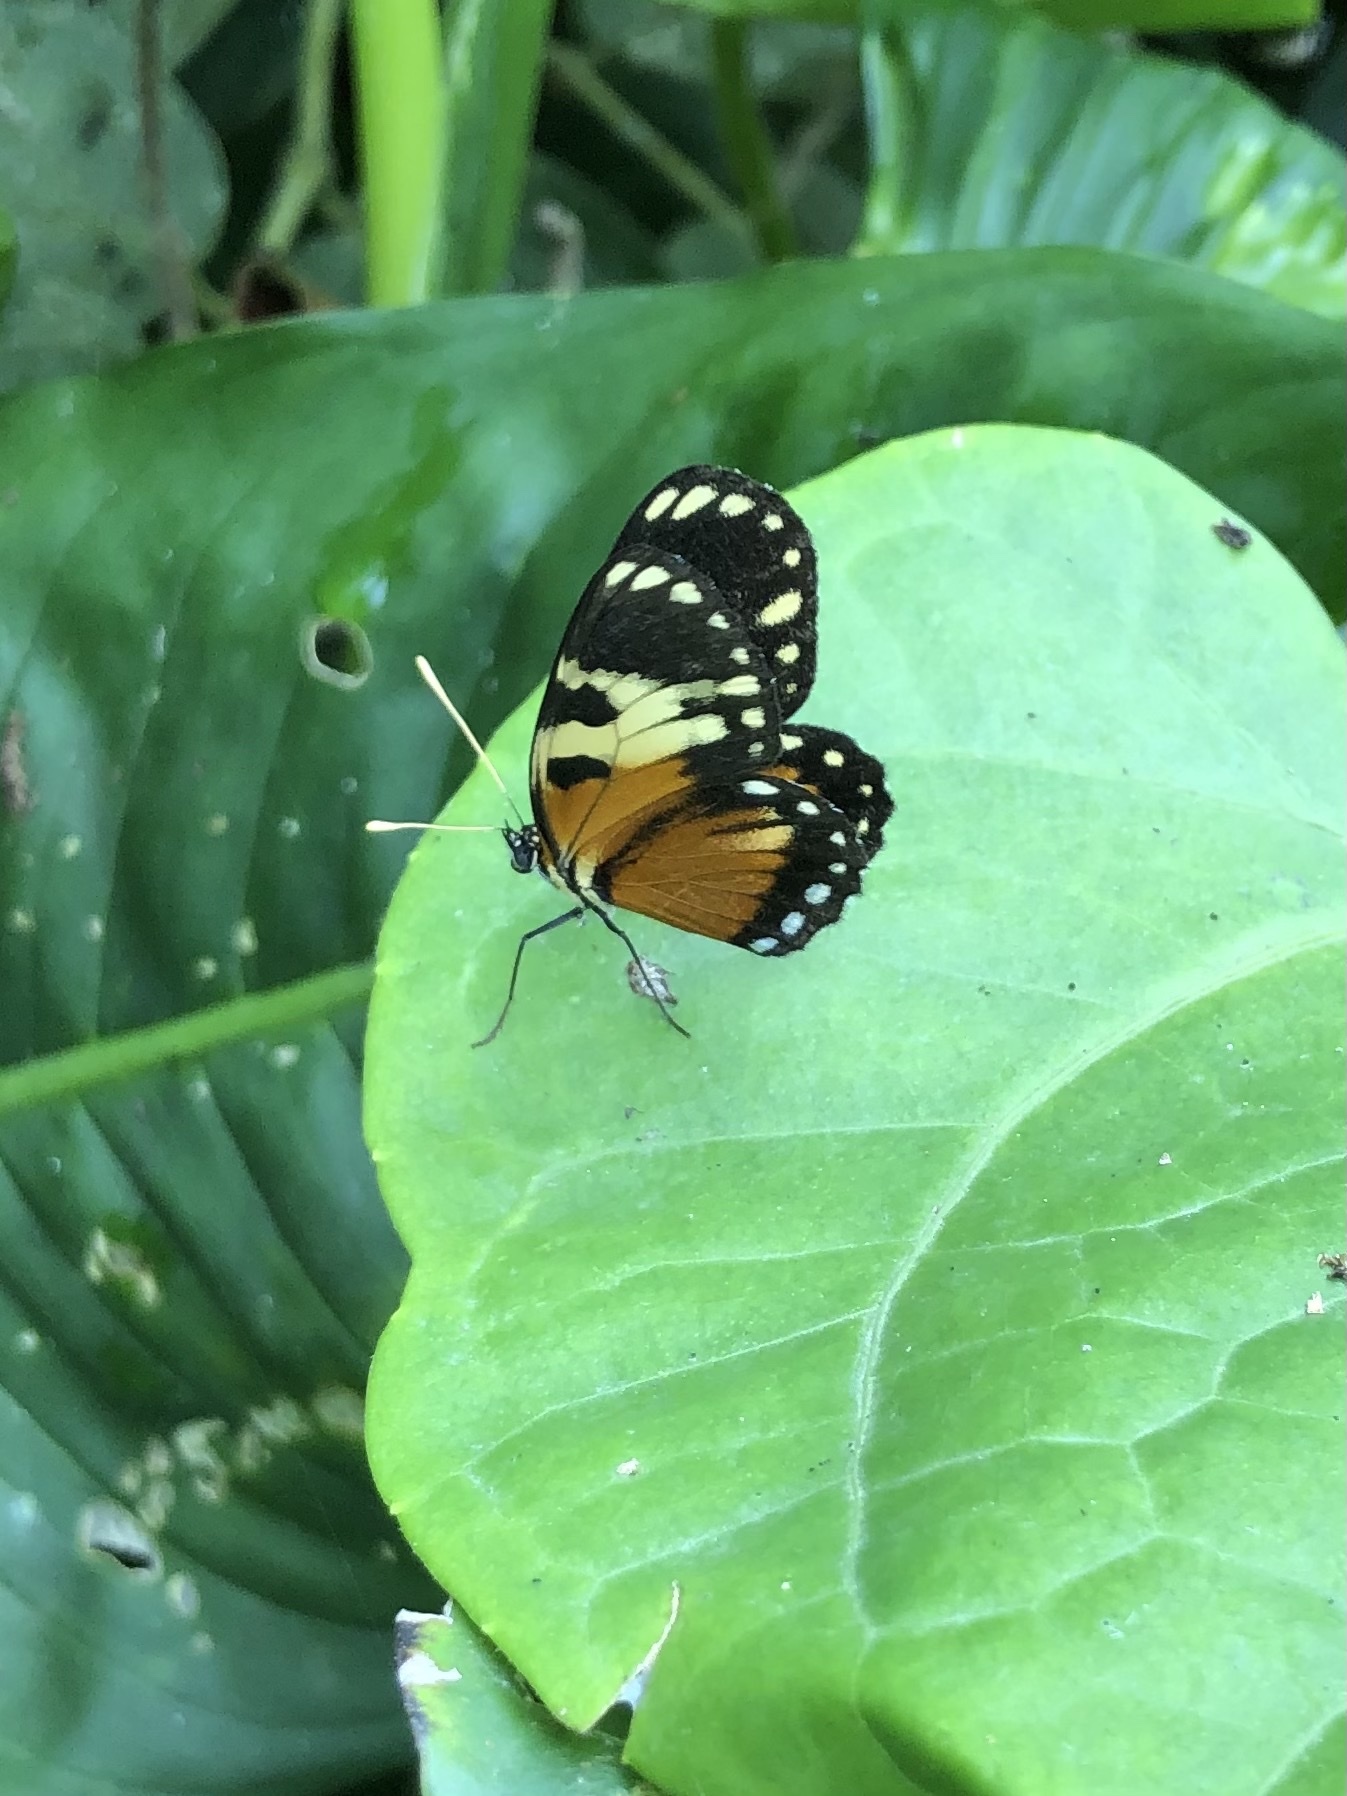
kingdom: Animalia
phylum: Arthropoda
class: Insecta
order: Lepidoptera
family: Nymphalidae
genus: Eresia
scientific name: Eresia quintilla
